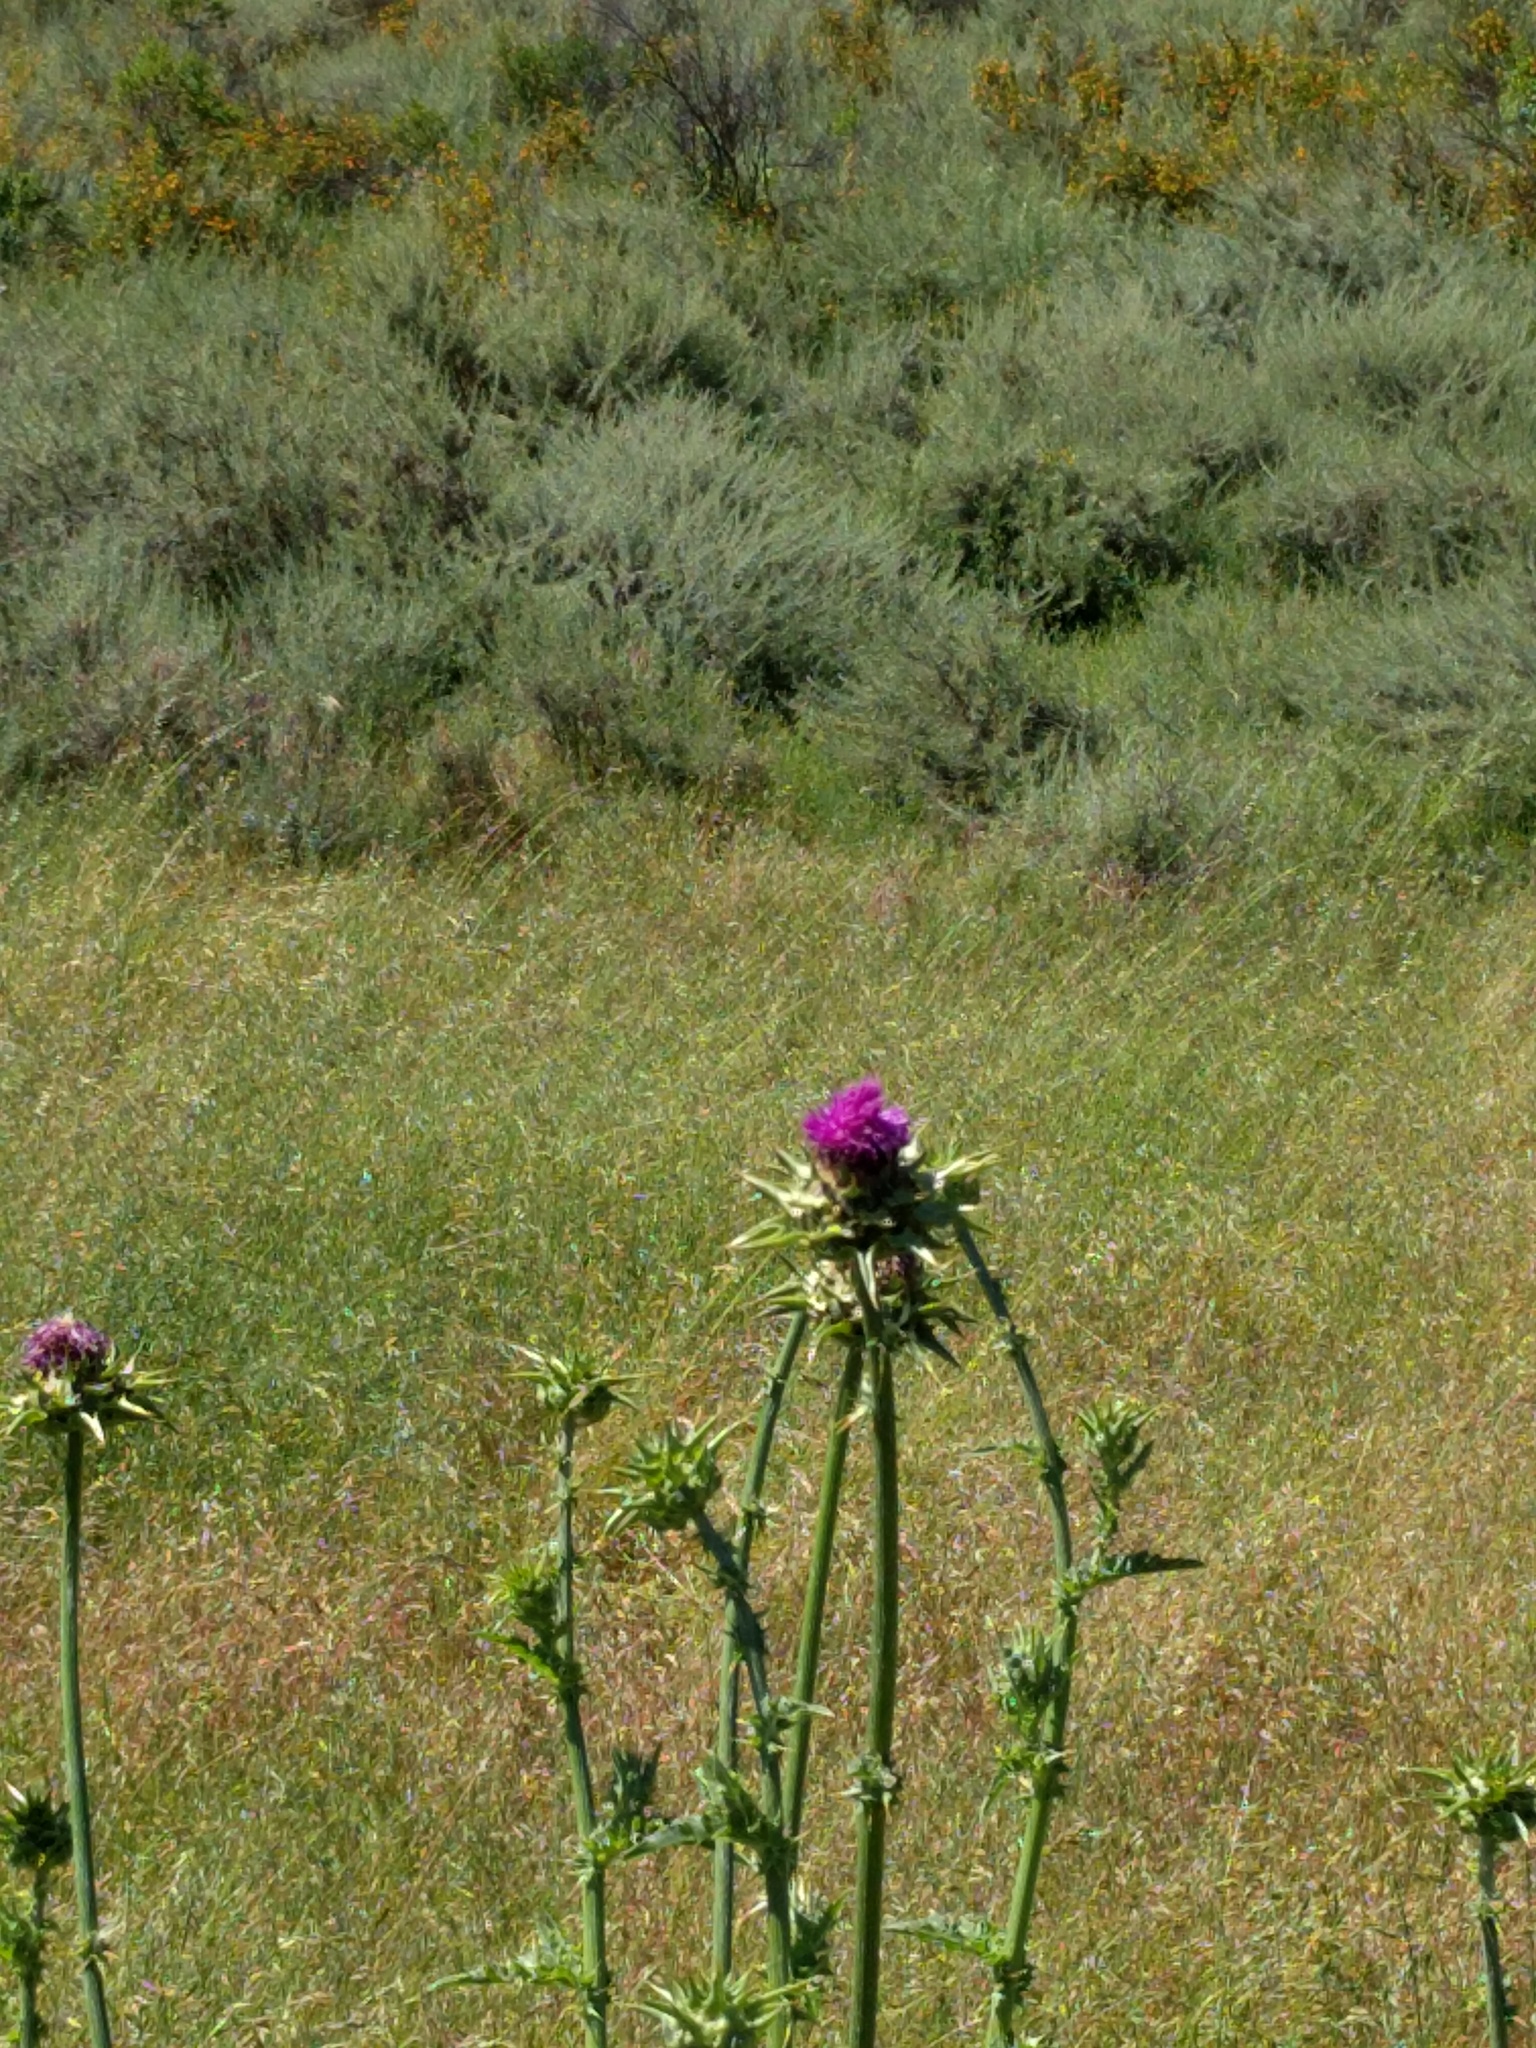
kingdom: Plantae
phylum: Tracheophyta
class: Magnoliopsida
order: Asterales
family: Asteraceae
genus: Silybum
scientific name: Silybum marianum
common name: Milk thistle
